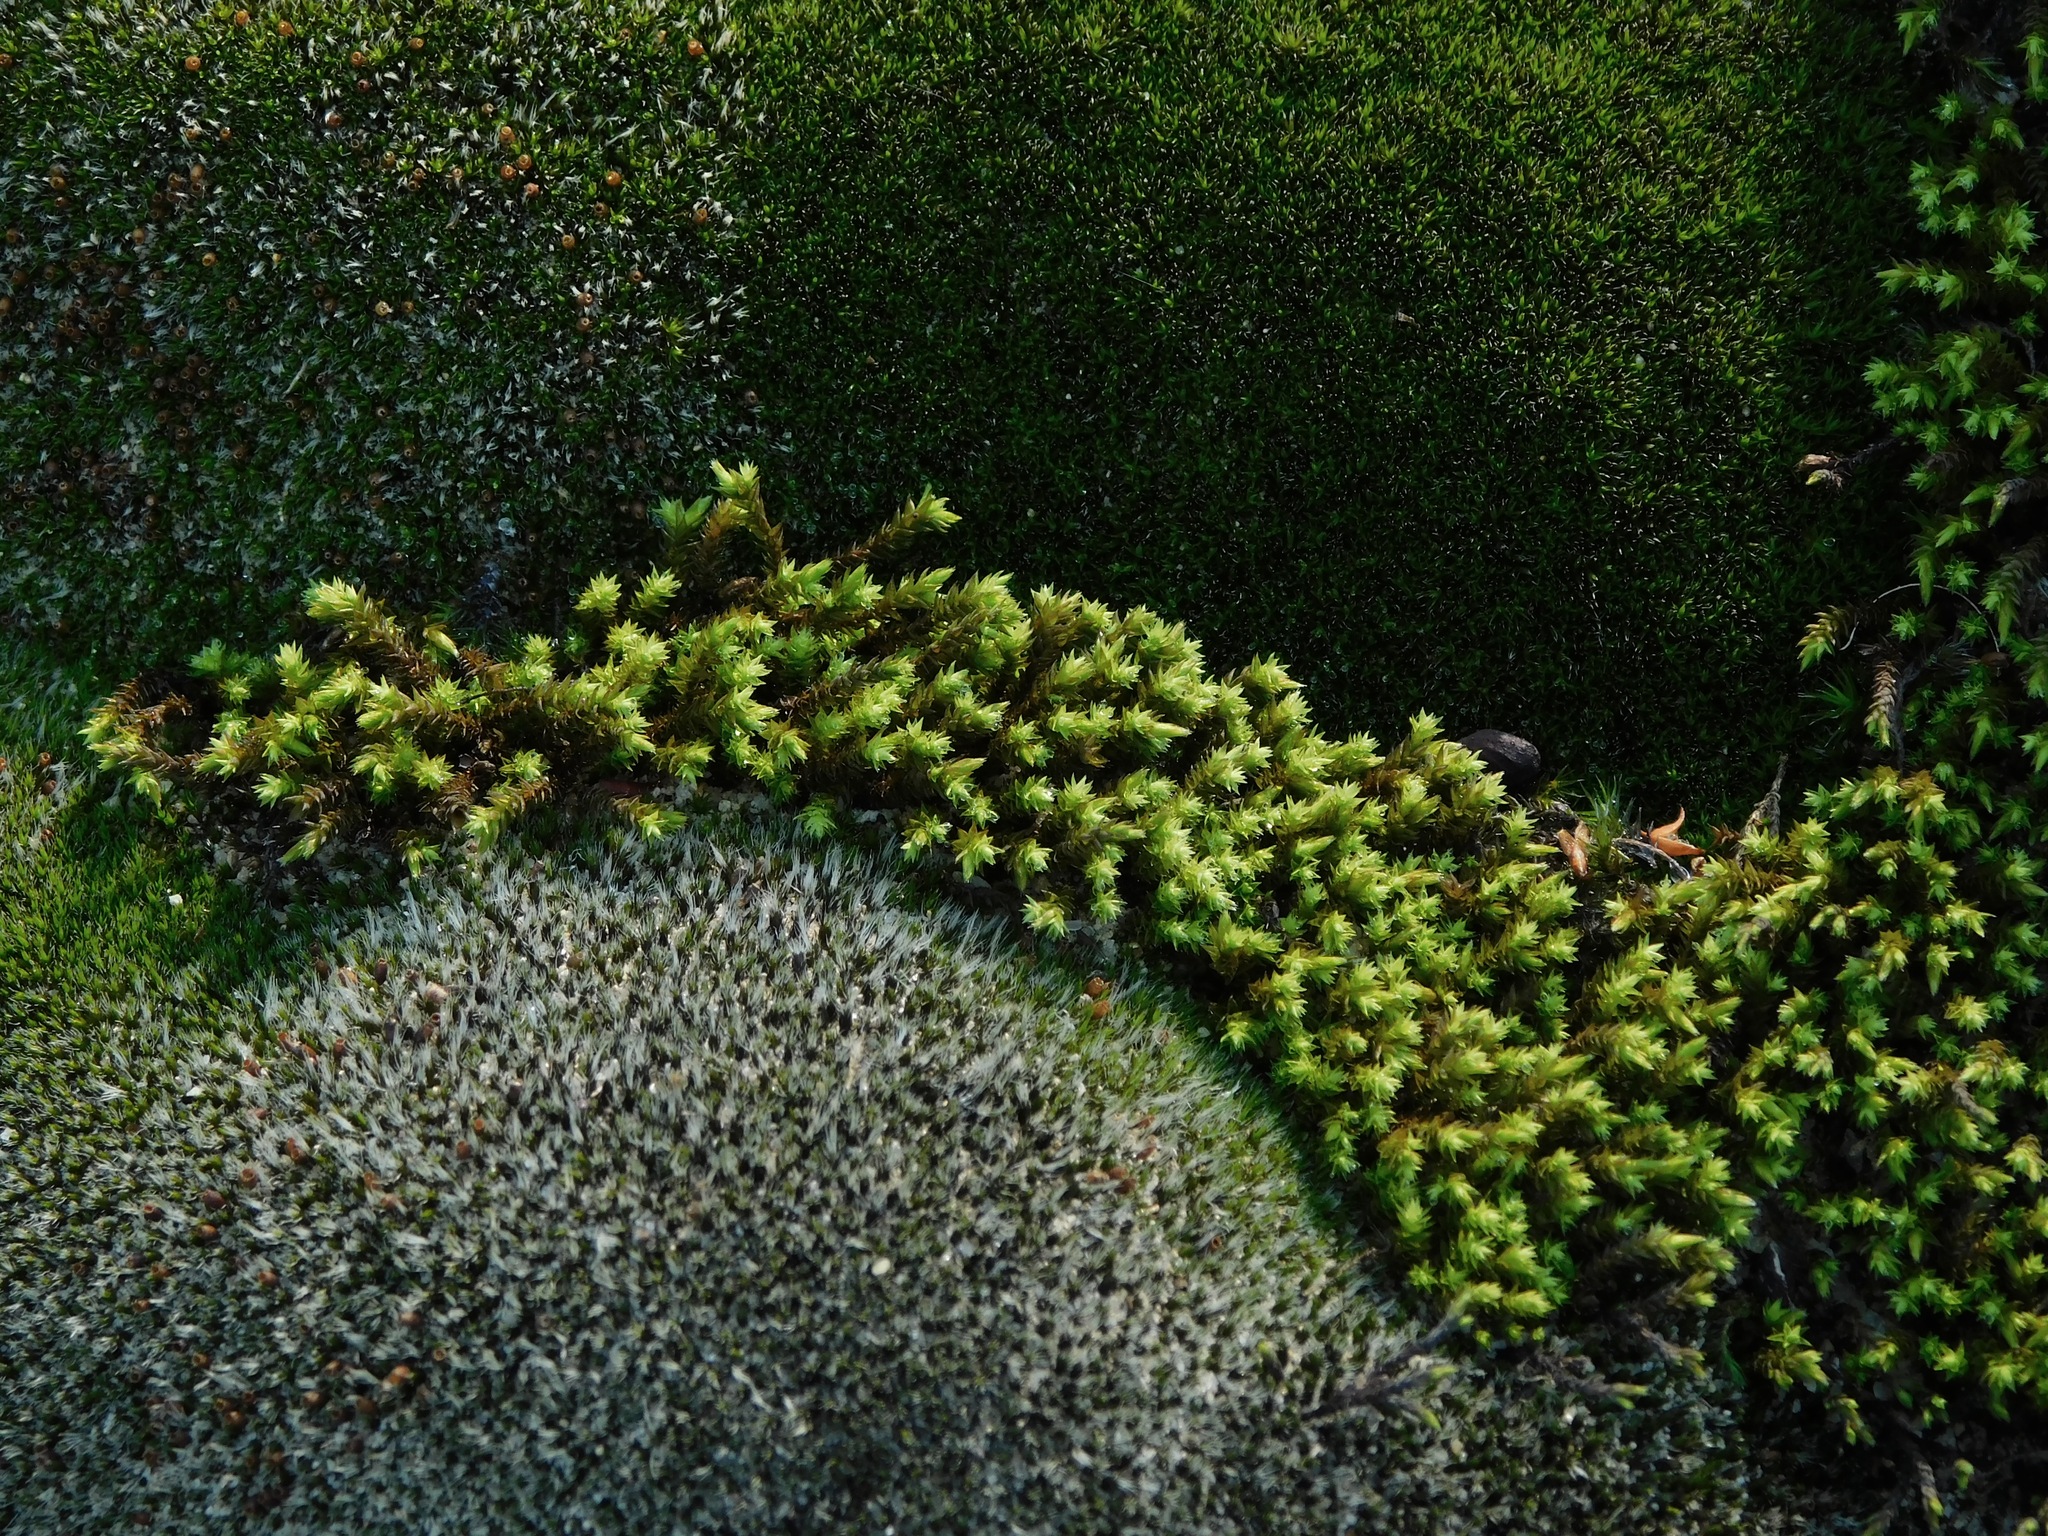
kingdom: Plantae
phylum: Bryophyta
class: Bryopsida
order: Hedwigiales
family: Hedwigiaceae
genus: Hedwigia
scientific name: Hedwigia ciliata
